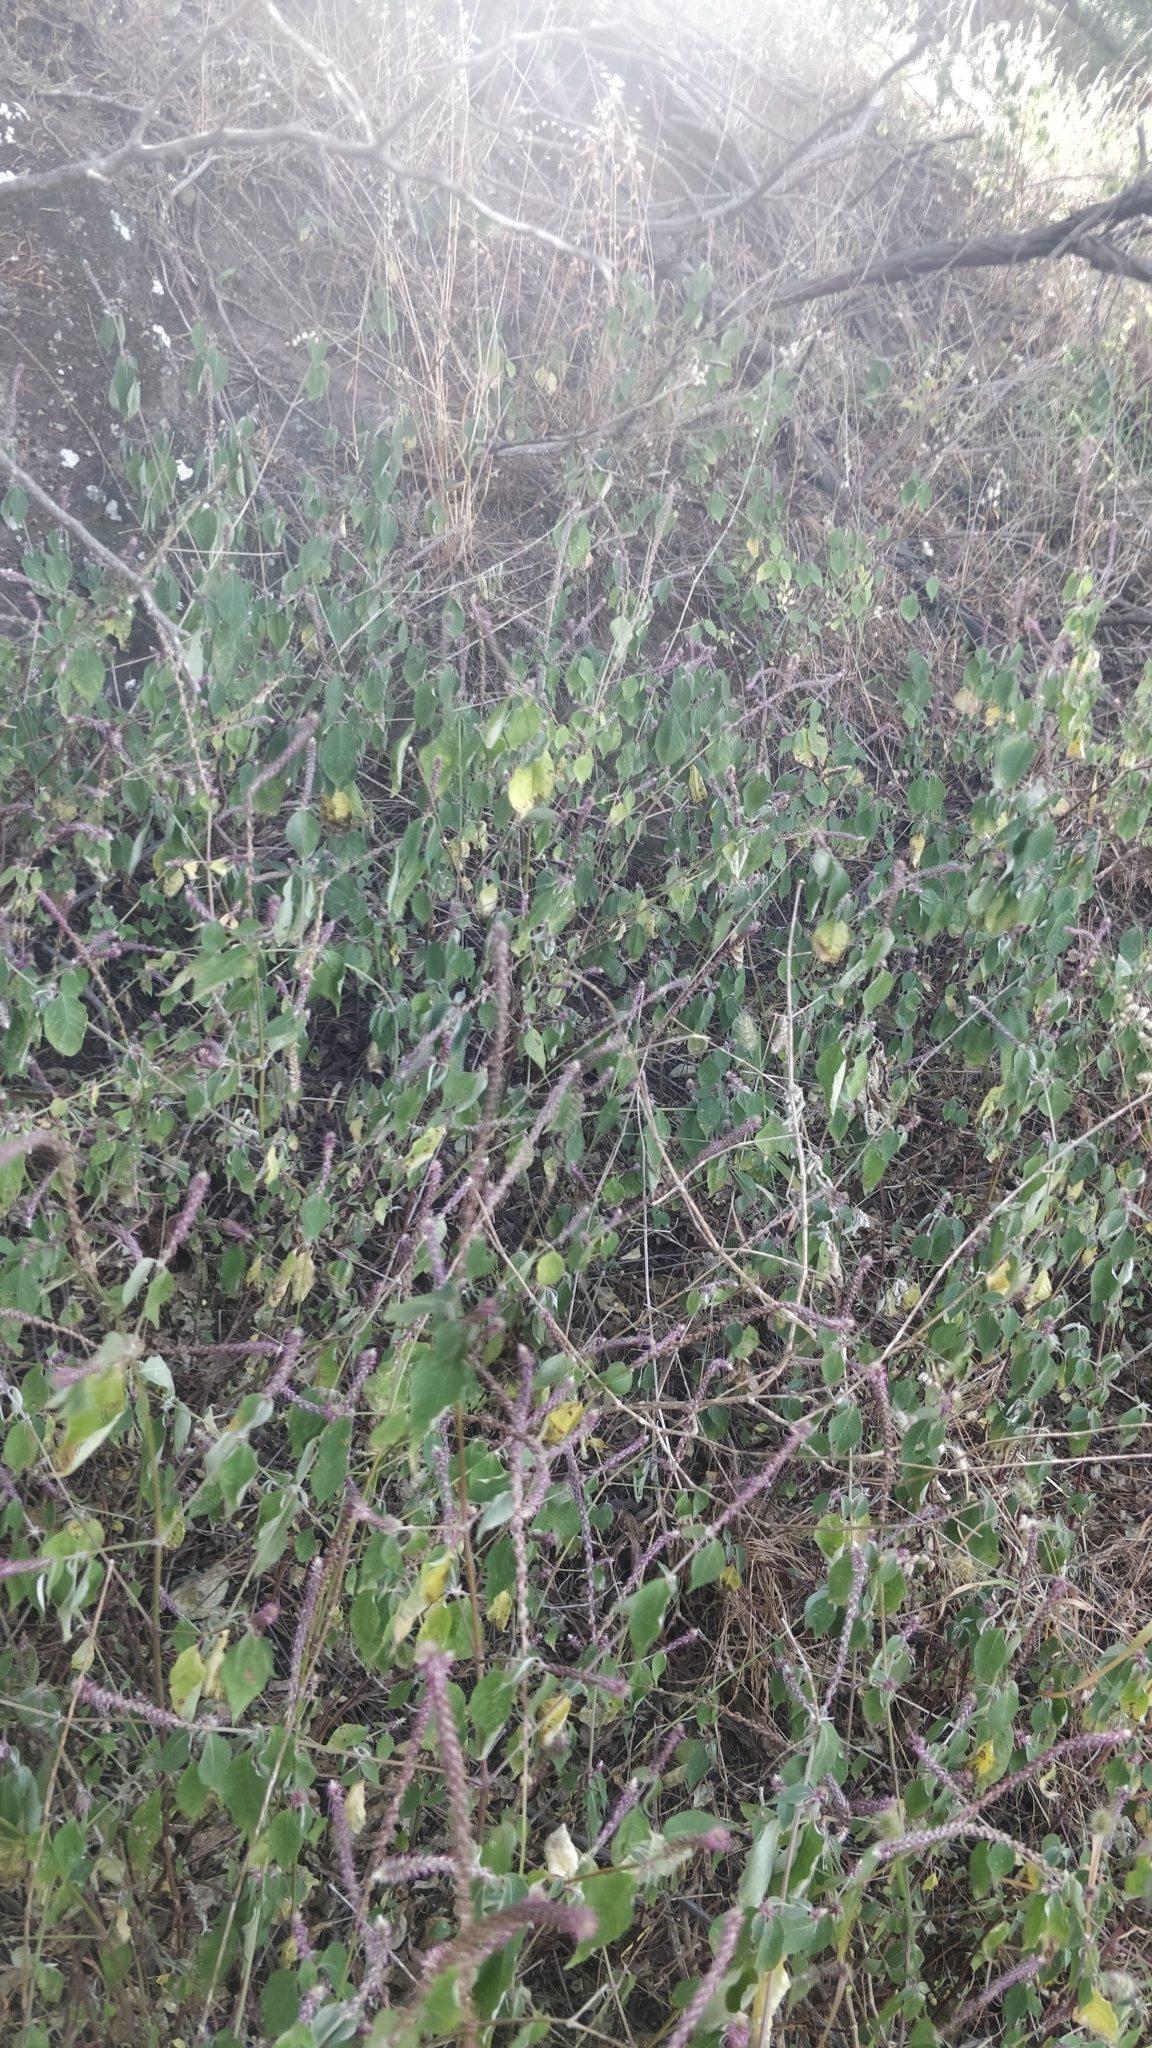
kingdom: Plantae
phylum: Tracheophyta
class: Magnoliopsida
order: Caryophyllales
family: Amaranthaceae
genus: Achyranthes
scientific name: Achyranthes aspera
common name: Devil's horsewhip
